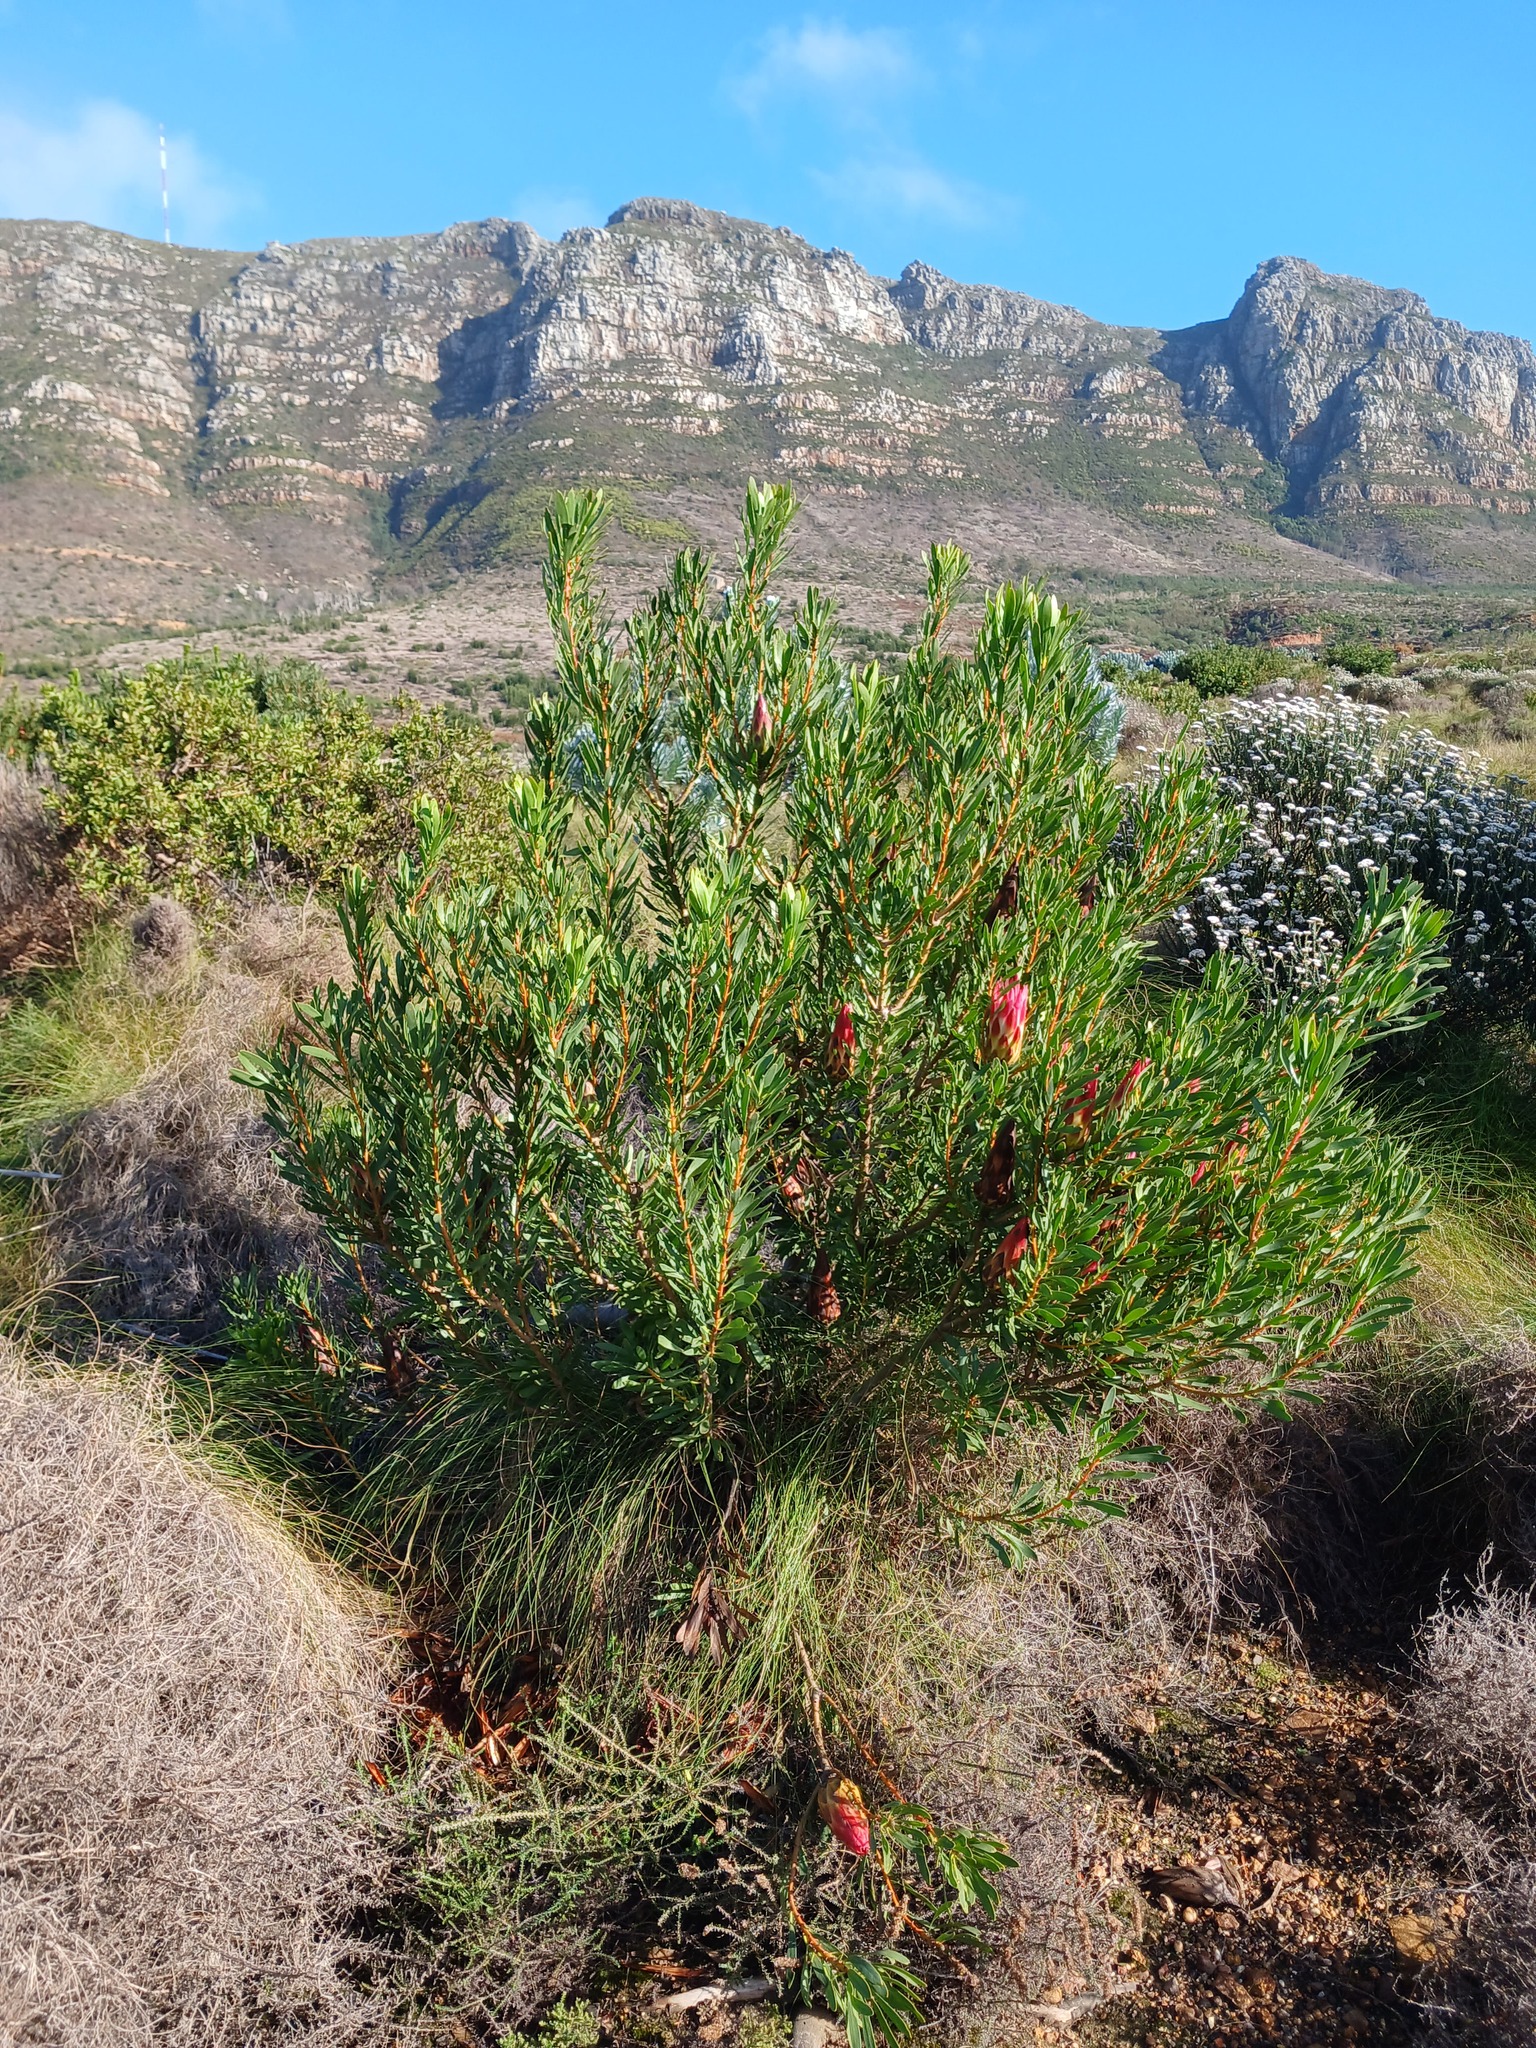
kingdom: Plantae
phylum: Tracheophyta
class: Magnoliopsida
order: Proteales
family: Proteaceae
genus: Protea
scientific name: Protea repens
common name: Sugarbush
